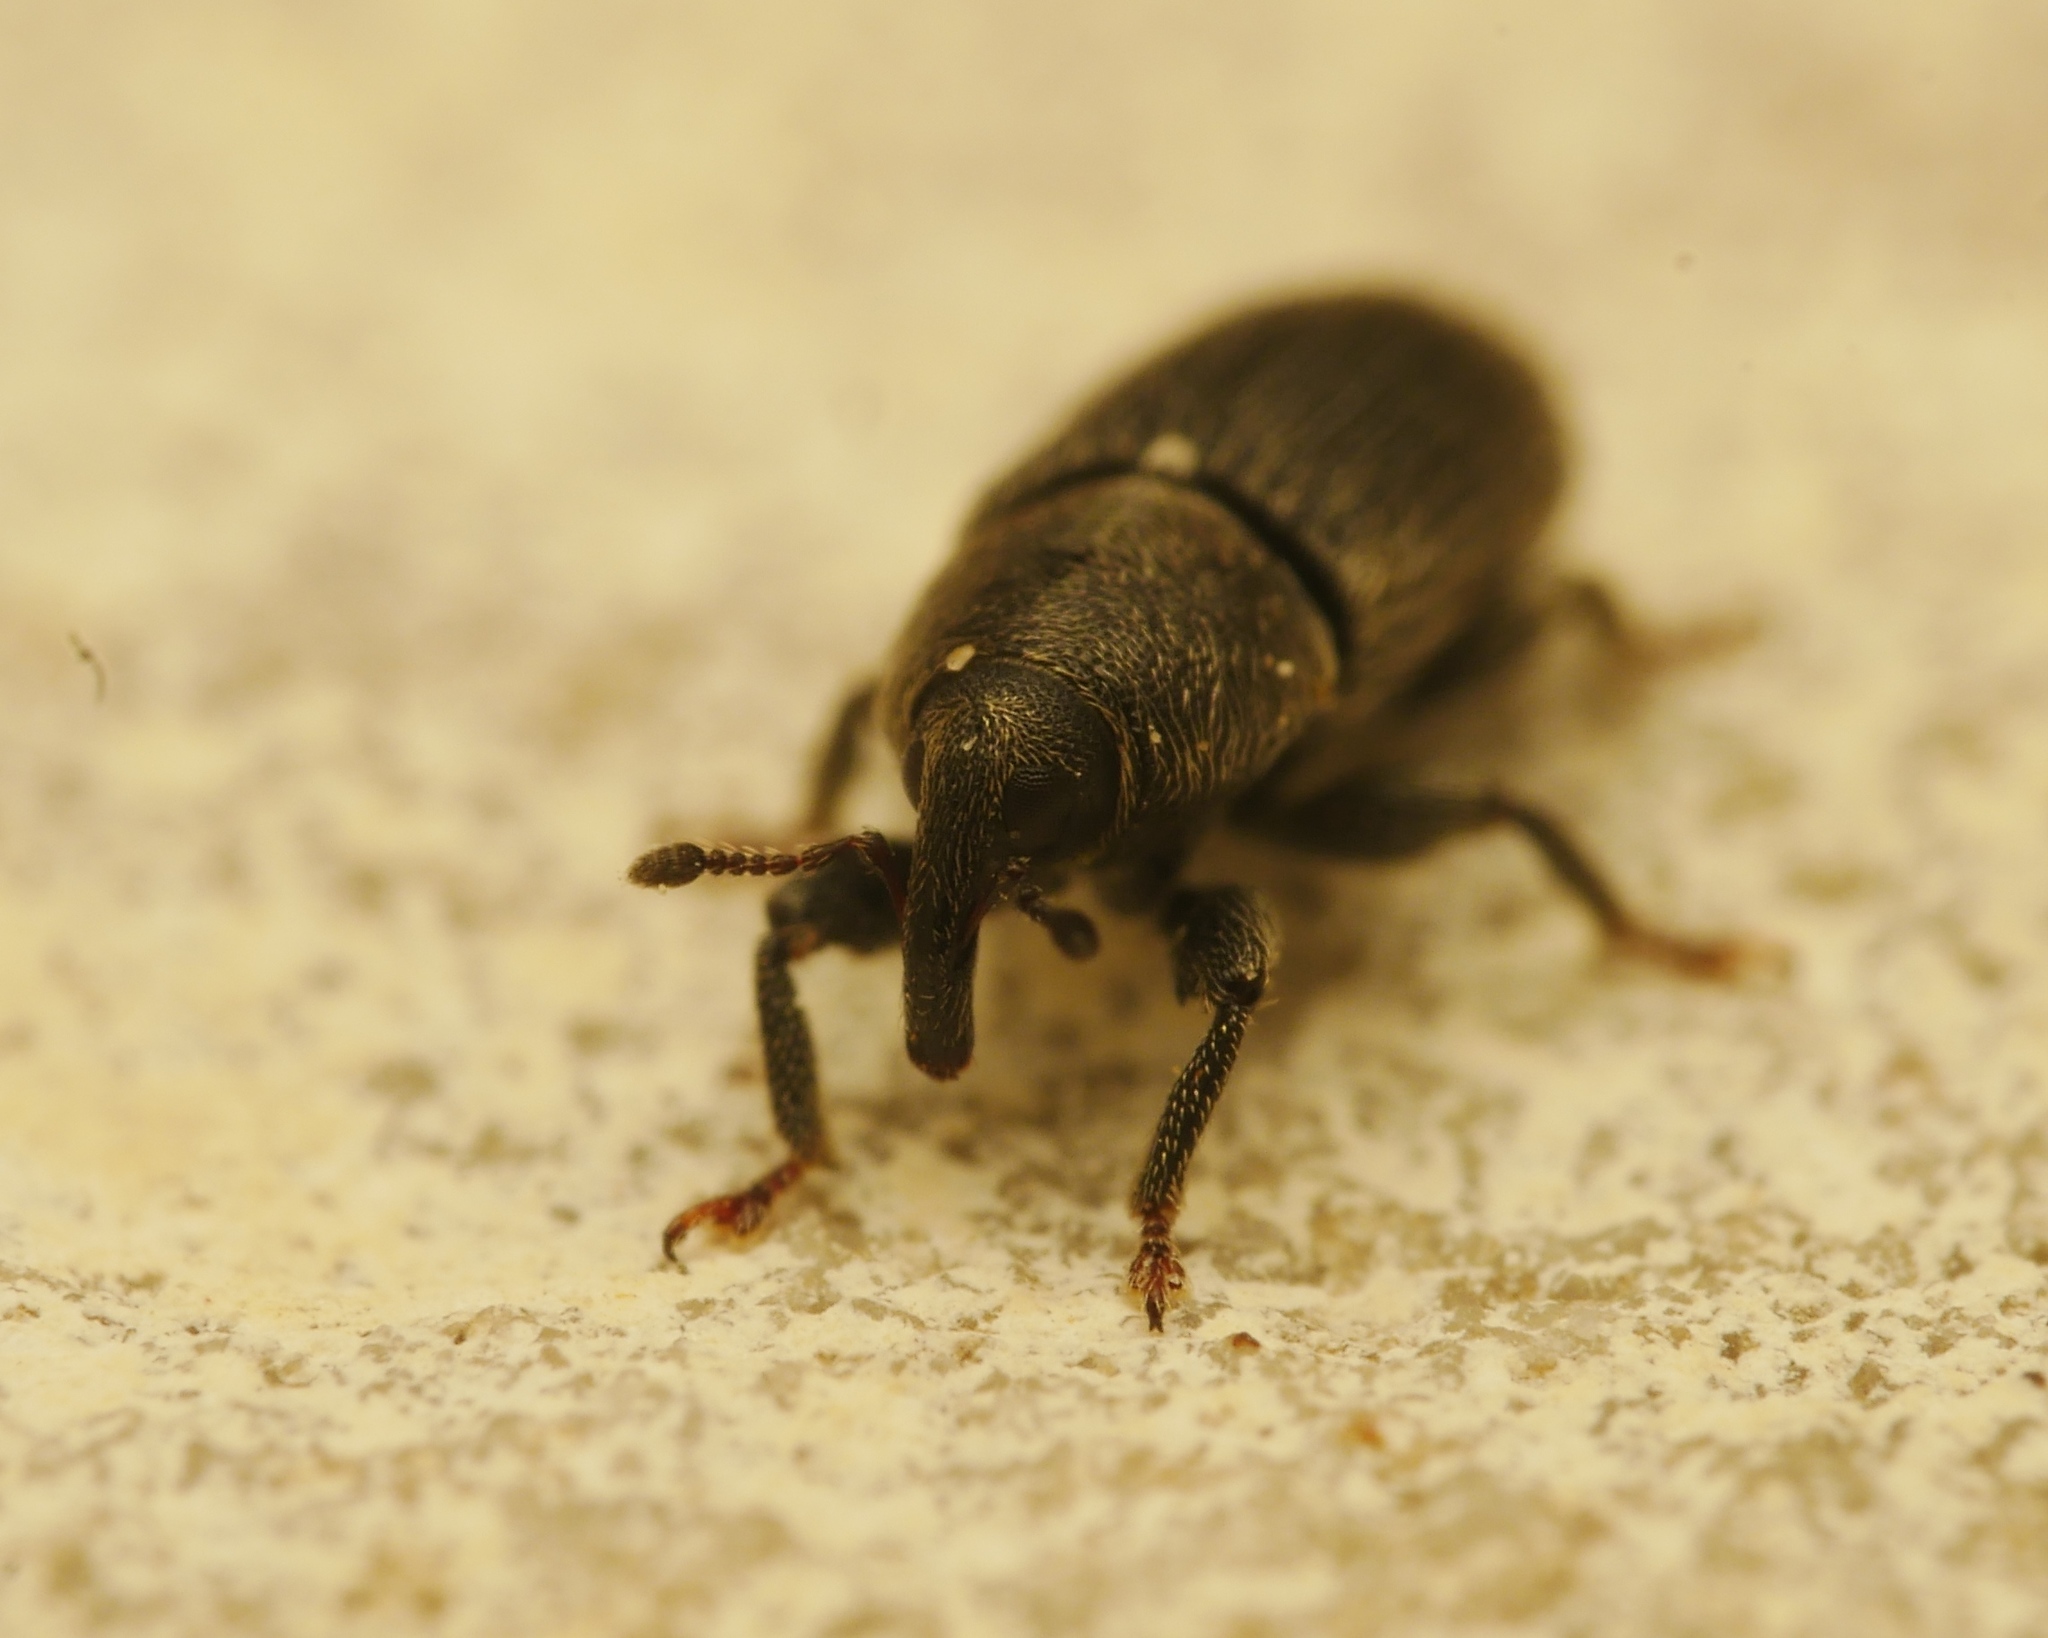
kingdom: Animalia
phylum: Arthropoda
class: Insecta
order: Coleoptera
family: Curculionidae
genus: Mecinus
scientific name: Mecinus pyraster
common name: Weevil
